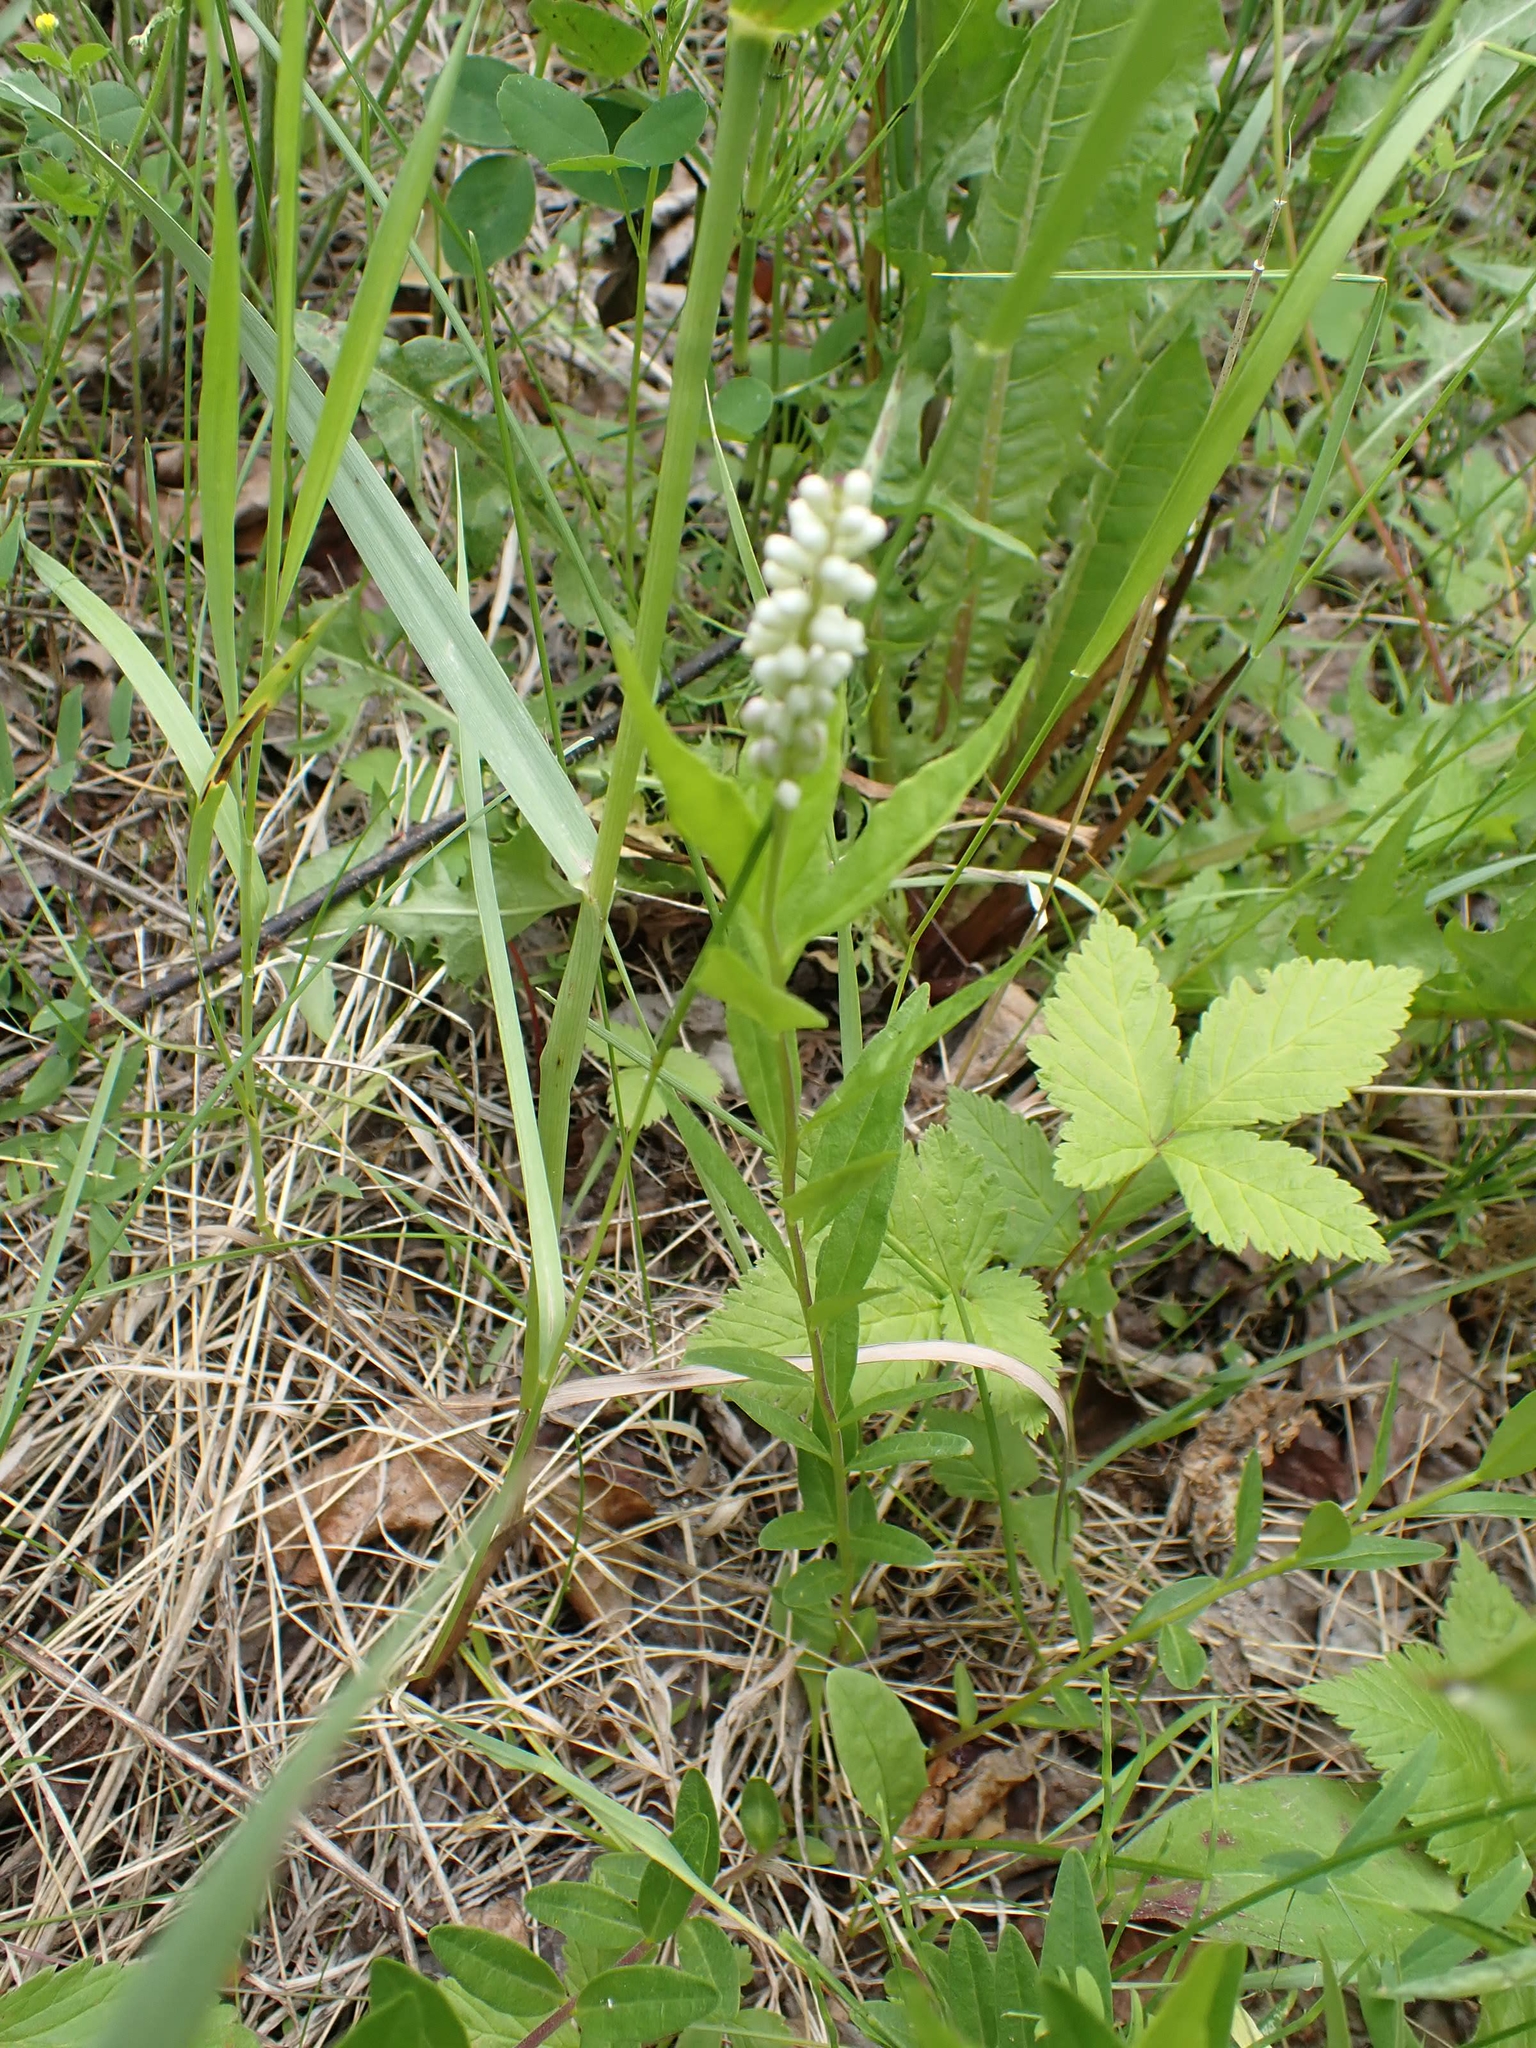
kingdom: Plantae
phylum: Tracheophyta
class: Magnoliopsida
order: Fabales
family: Polygalaceae
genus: Polygala
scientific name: Polygala senega
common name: Seneca snakeroot
